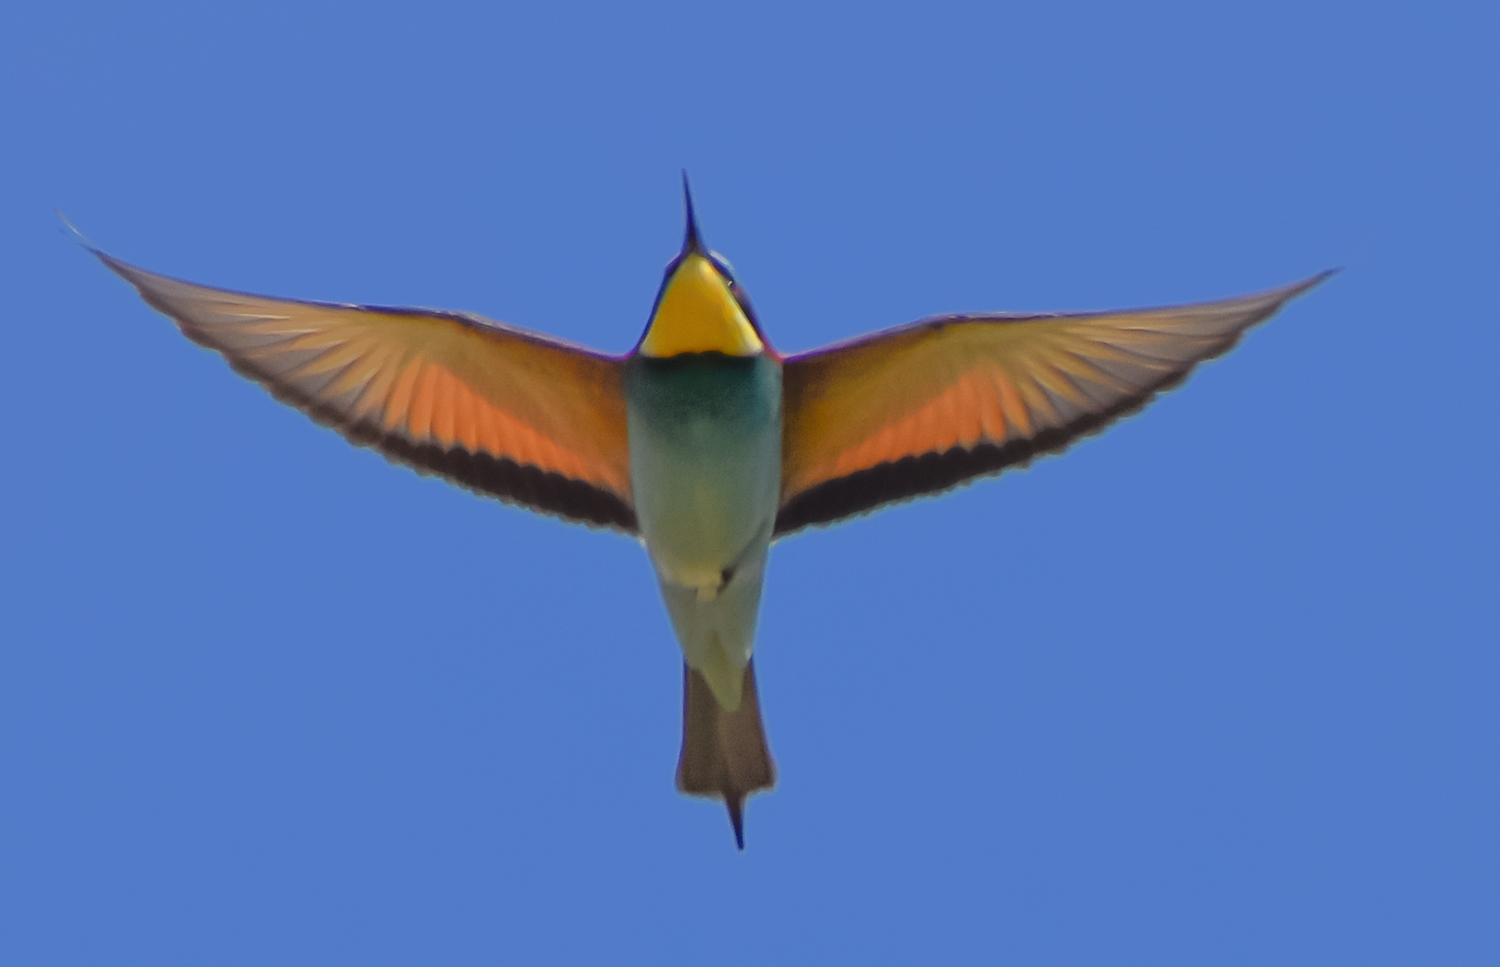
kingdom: Animalia
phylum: Chordata
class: Aves
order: Coraciiformes
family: Meropidae
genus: Merops
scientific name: Merops apiaster
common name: European bee-eater
